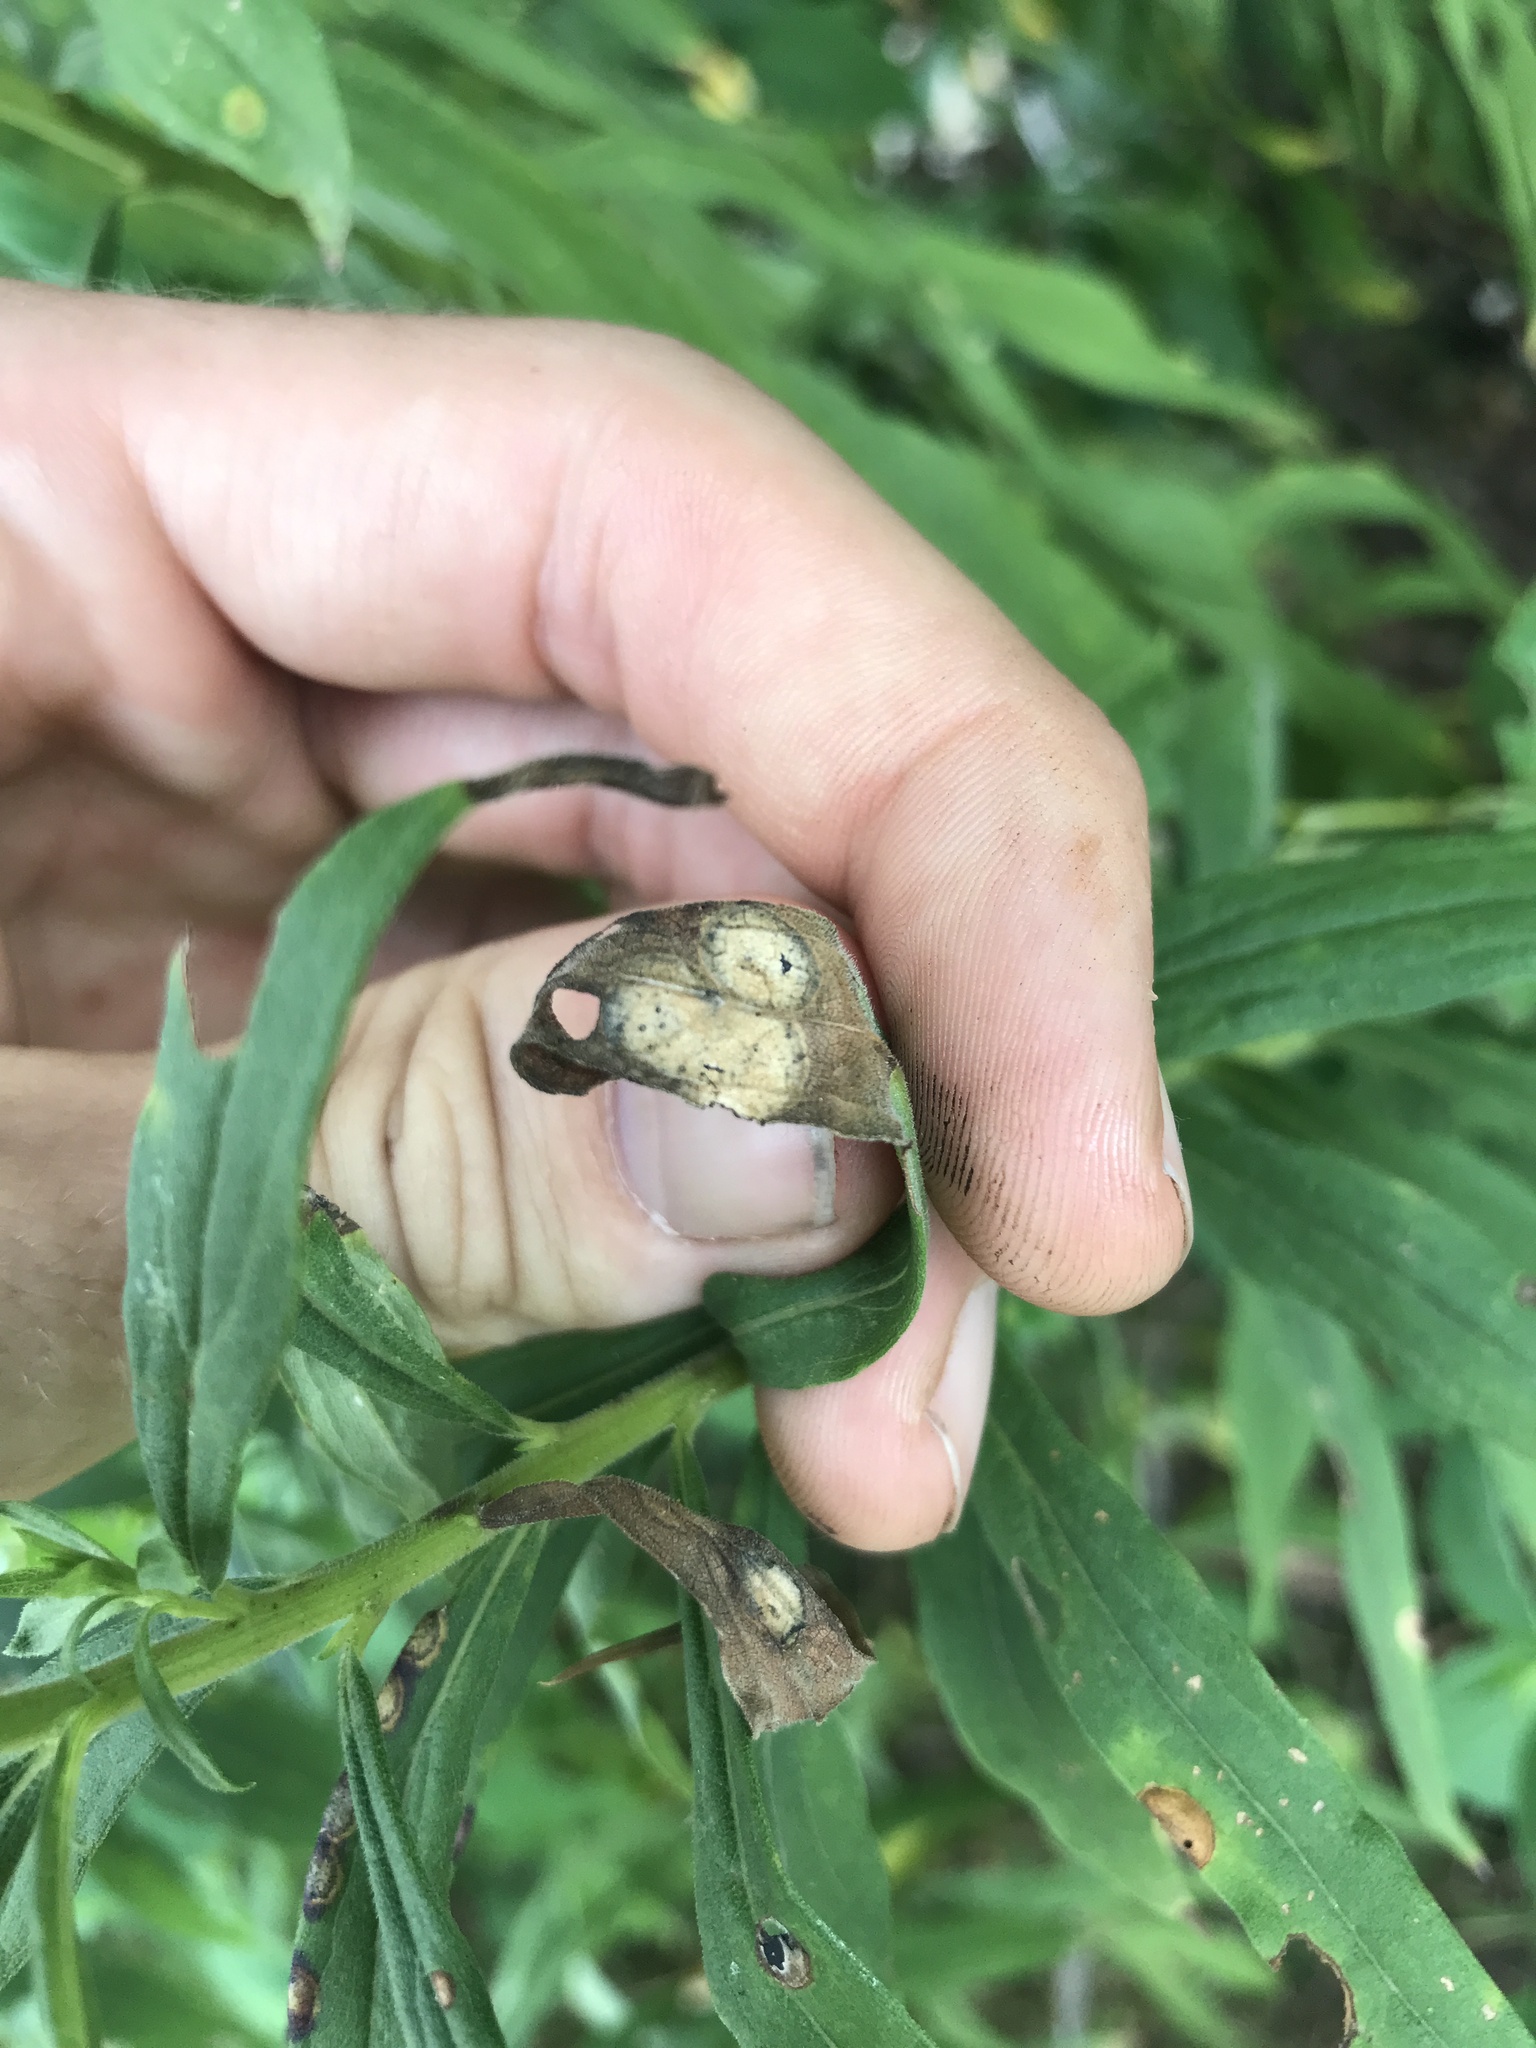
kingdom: Animalia
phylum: Arthropoda
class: Insecta
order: Diptera
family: Cecidomyiidae
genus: Asteromyia
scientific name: Asteromyia carbonifera
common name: Carbonifera goldenrod gall midge
